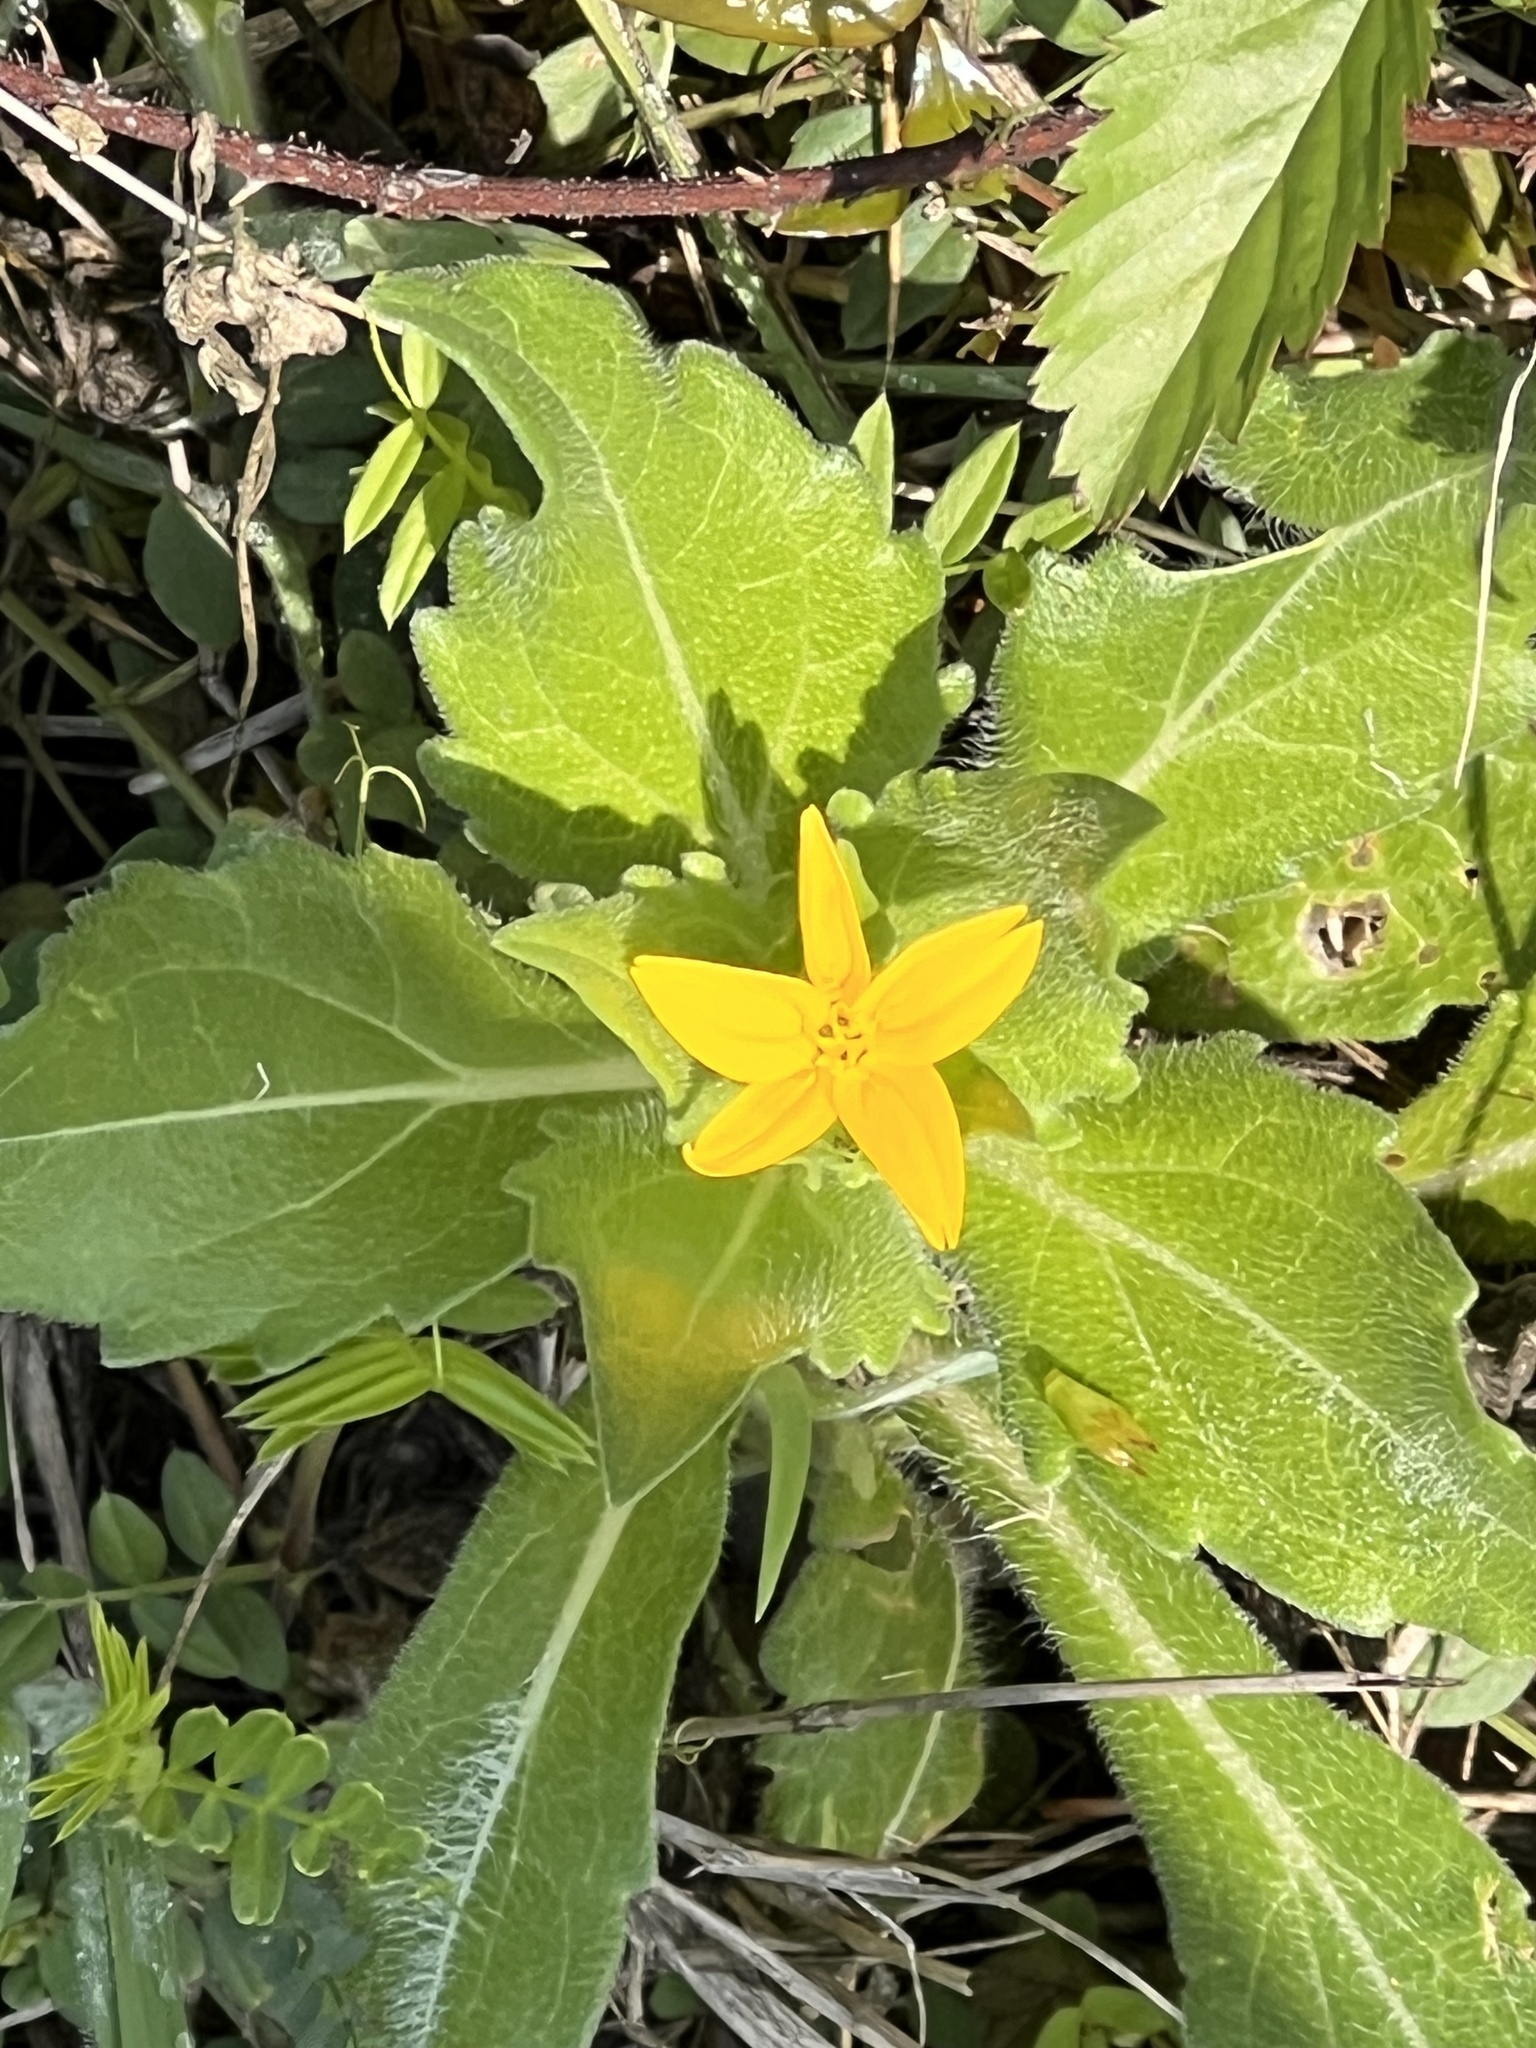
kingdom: Plantae
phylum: Tracheophyta
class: Magnoliopsida
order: Asterales
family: Asteraceae
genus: Lindheimera
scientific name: Lindheimera texana
